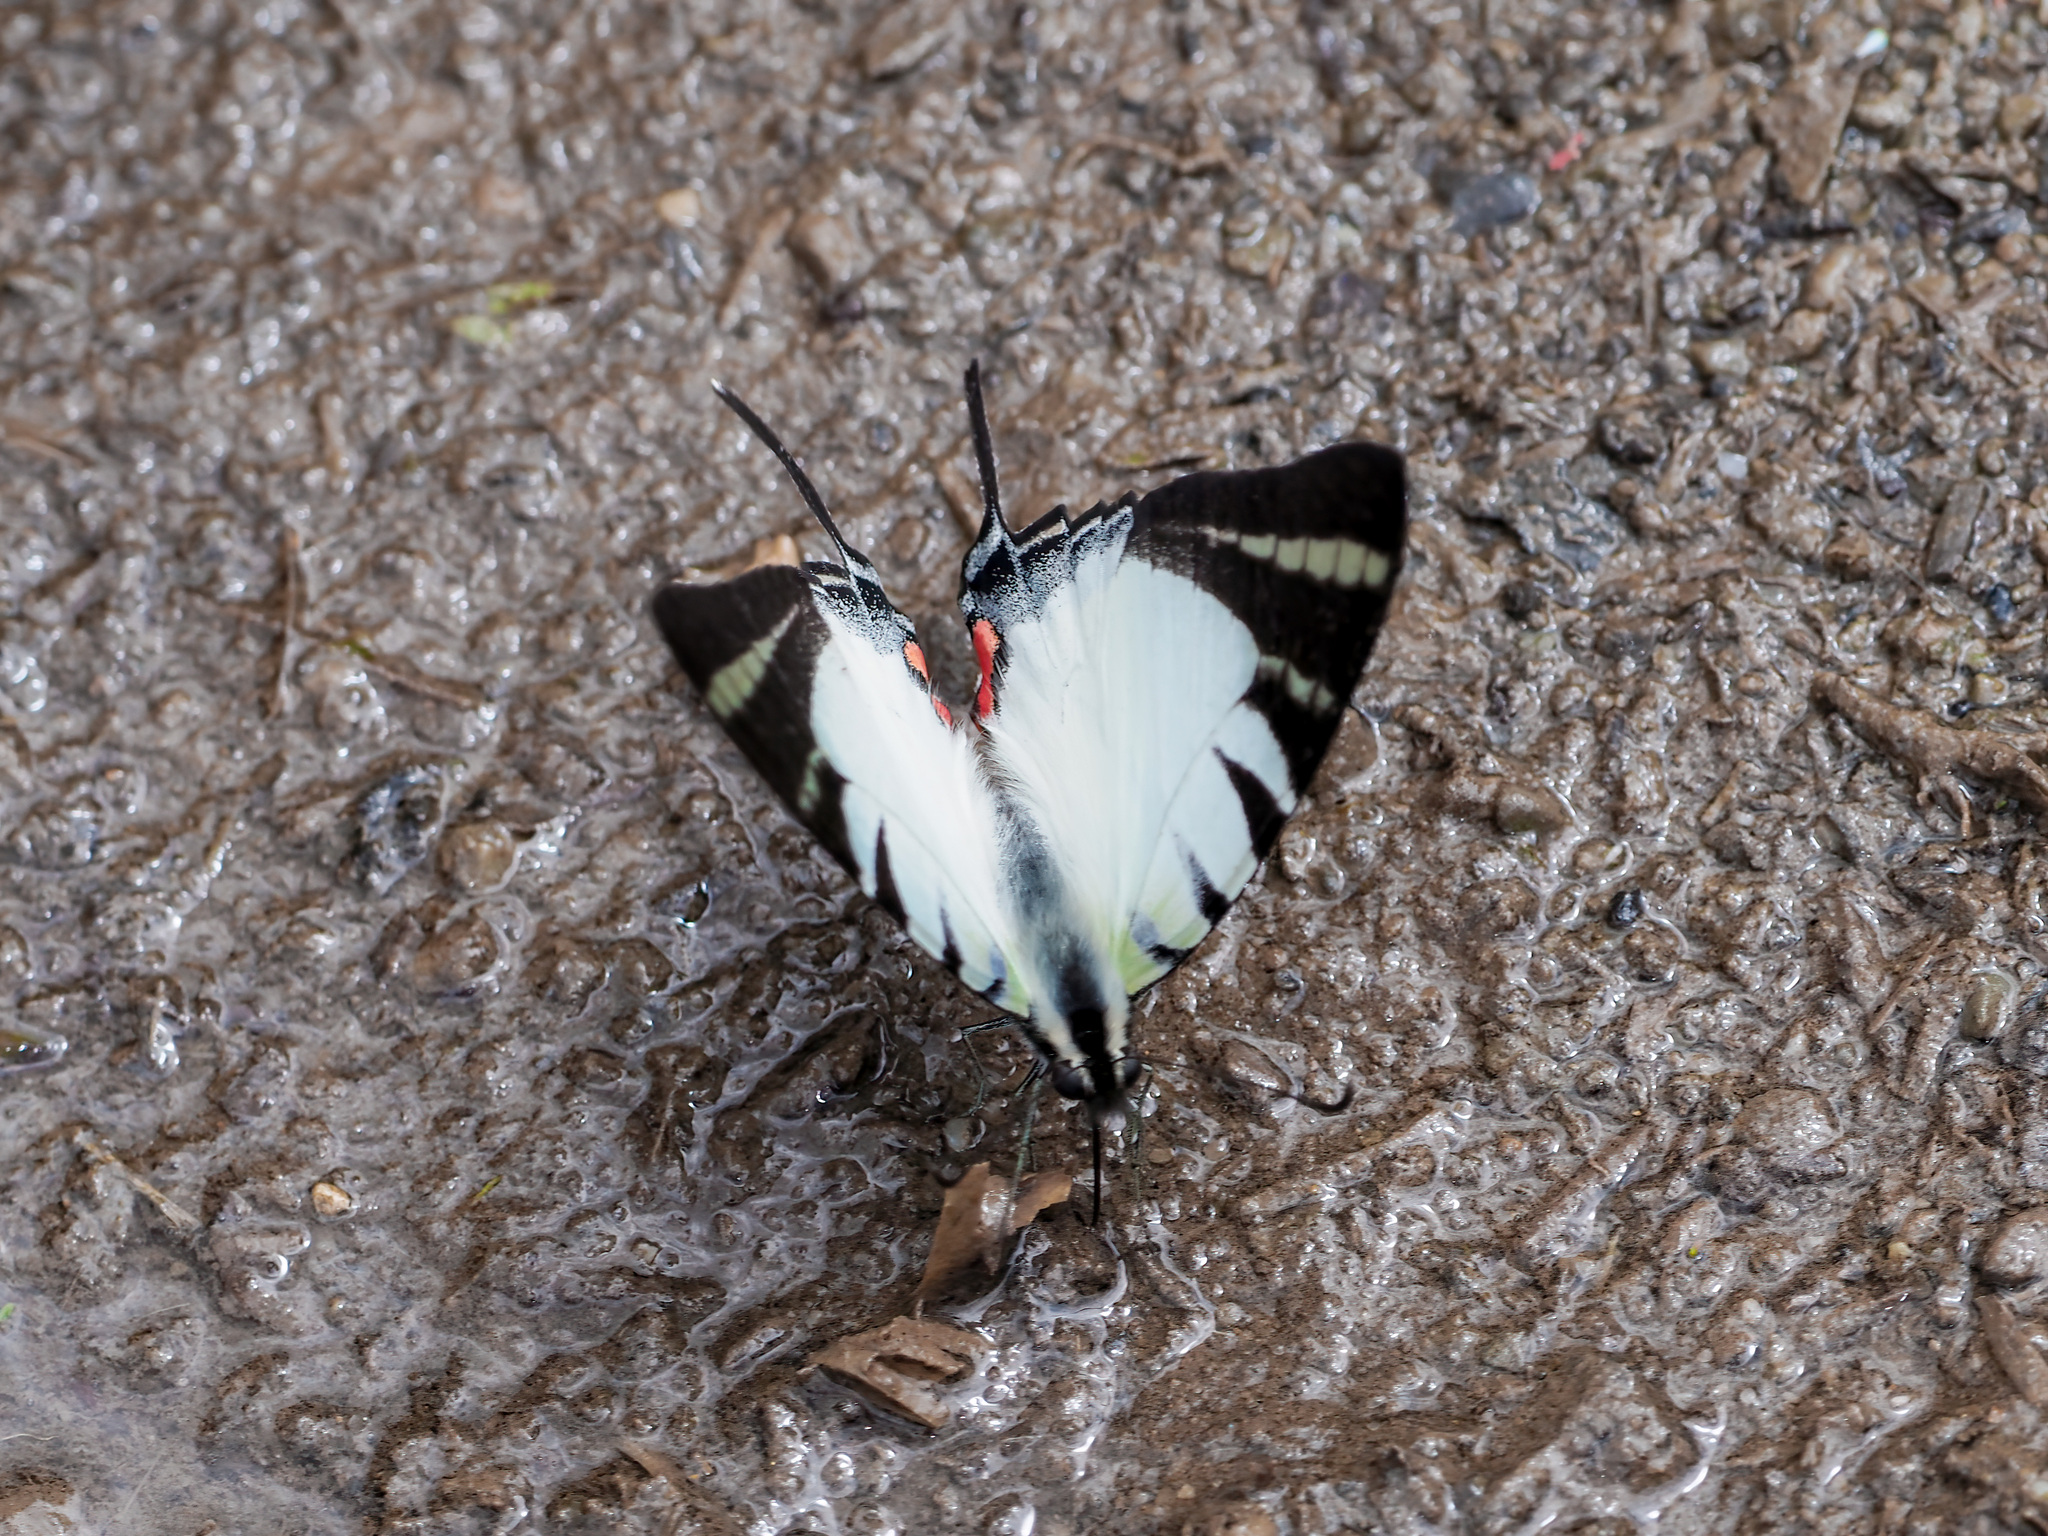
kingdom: Animalia
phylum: Arthropoda
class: Insecta
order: Lepidoptera
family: Papilionidae
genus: Graphium
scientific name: Graphium stratiotes
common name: Kinabalu swordtail
